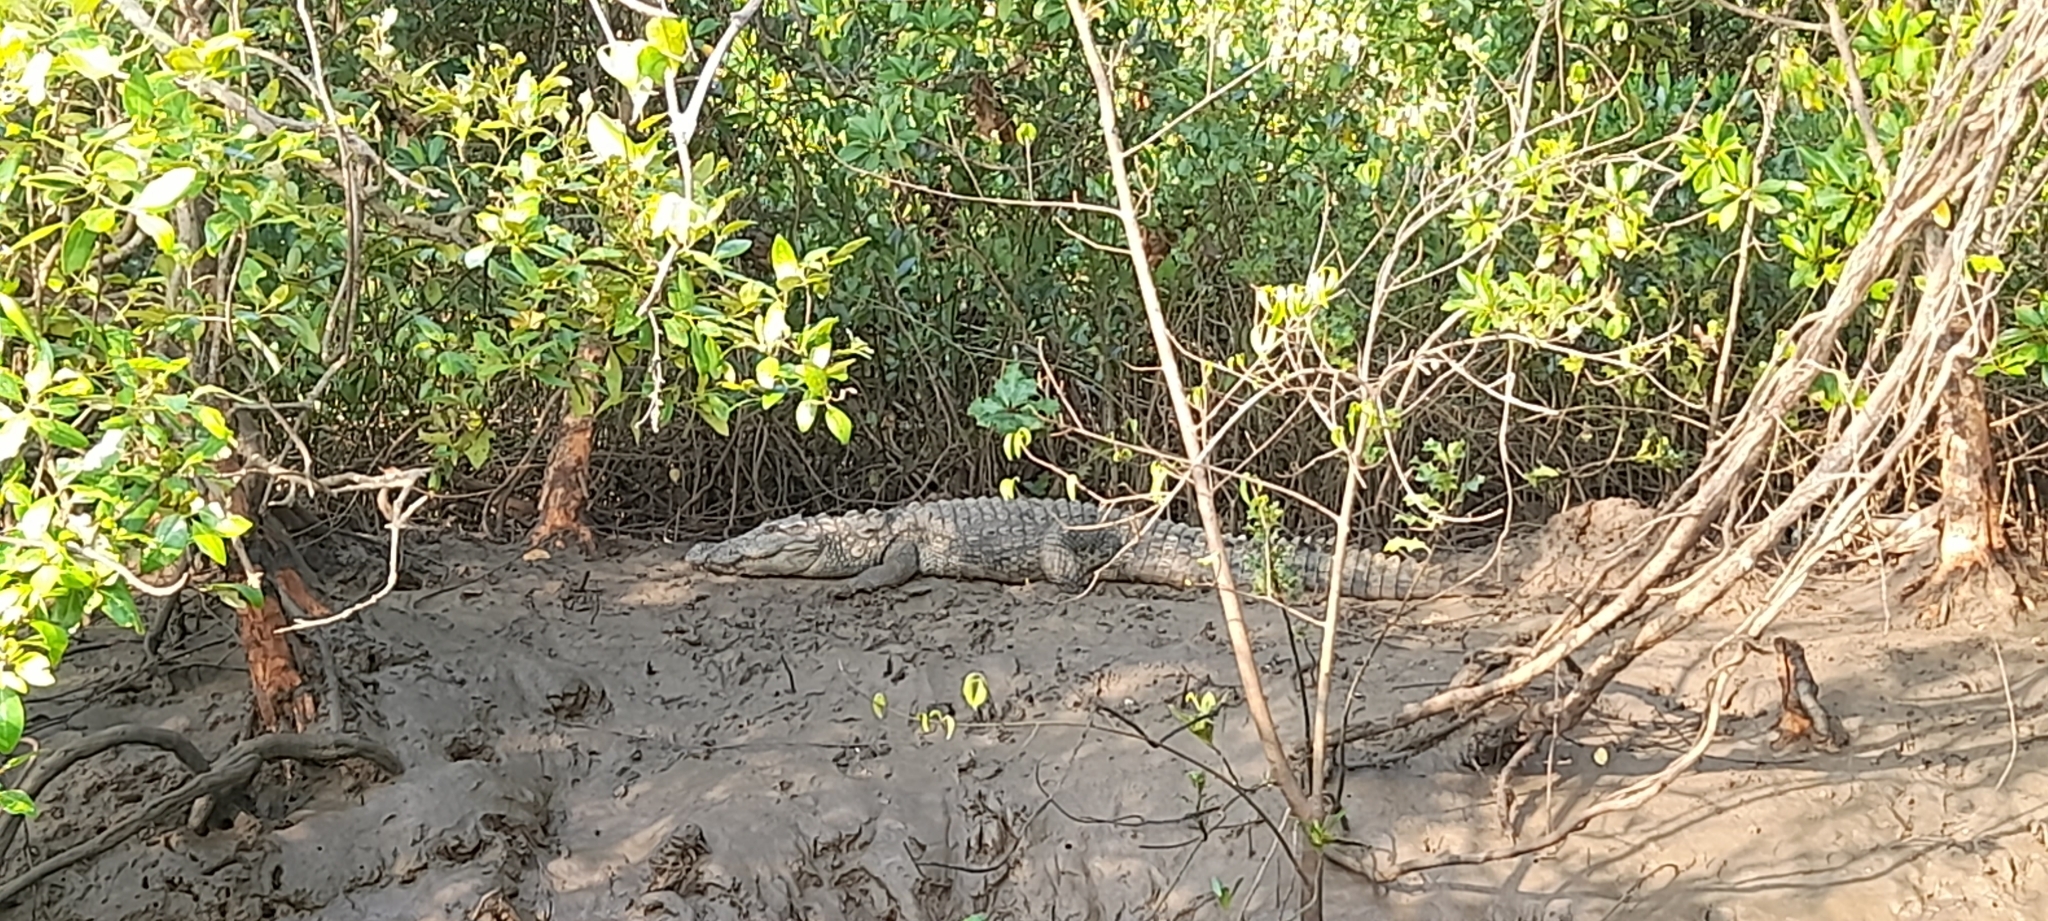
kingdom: Animalia
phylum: Chordata
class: Crocodylia
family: Crocodylidae
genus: Crocodylus
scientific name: Crocodylus palustris
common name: Mugger crocodile
